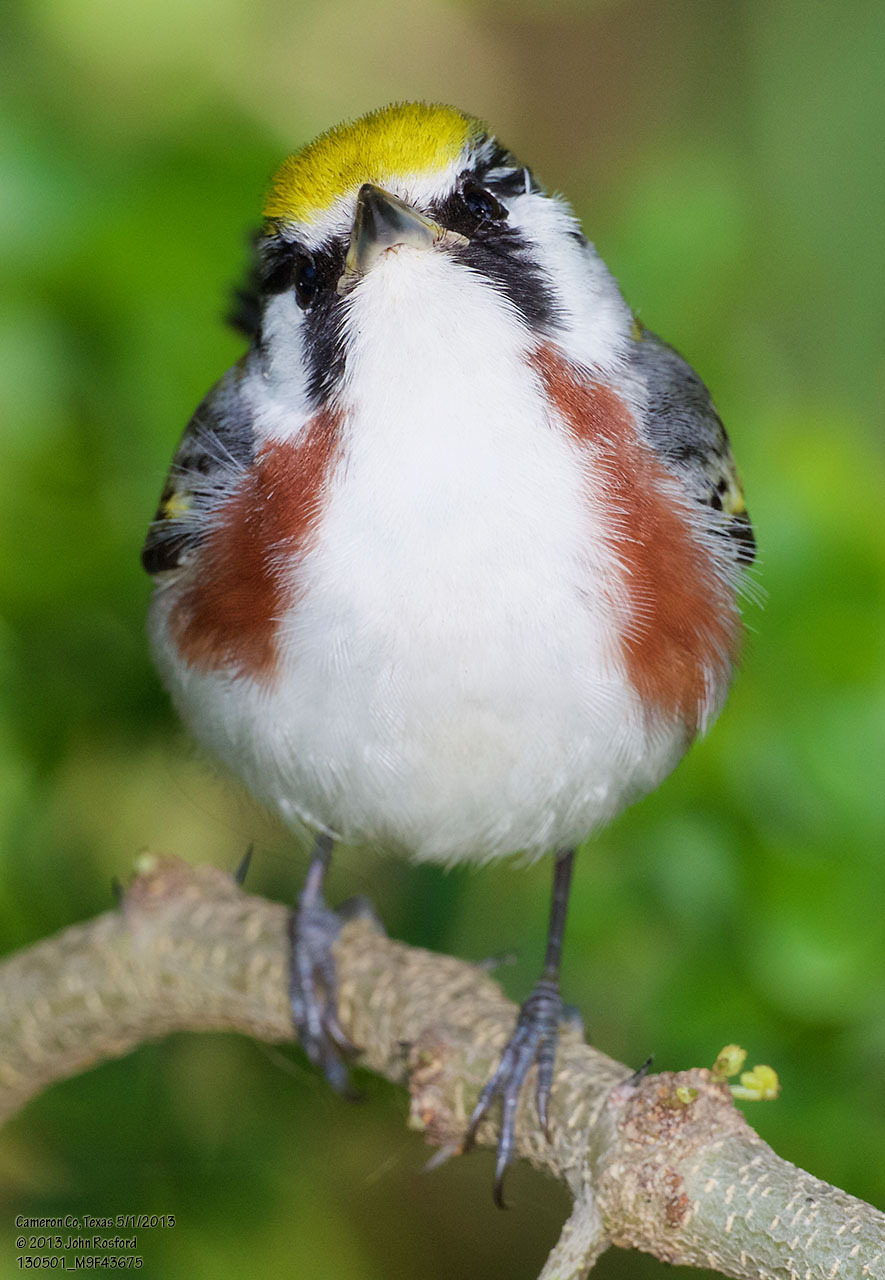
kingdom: Animalia
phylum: Chordata
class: Aves
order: Passeriformes
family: Parulidae
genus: Setophaga
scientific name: Setophaga pensylvanica
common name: Chestnut-sided warbler
